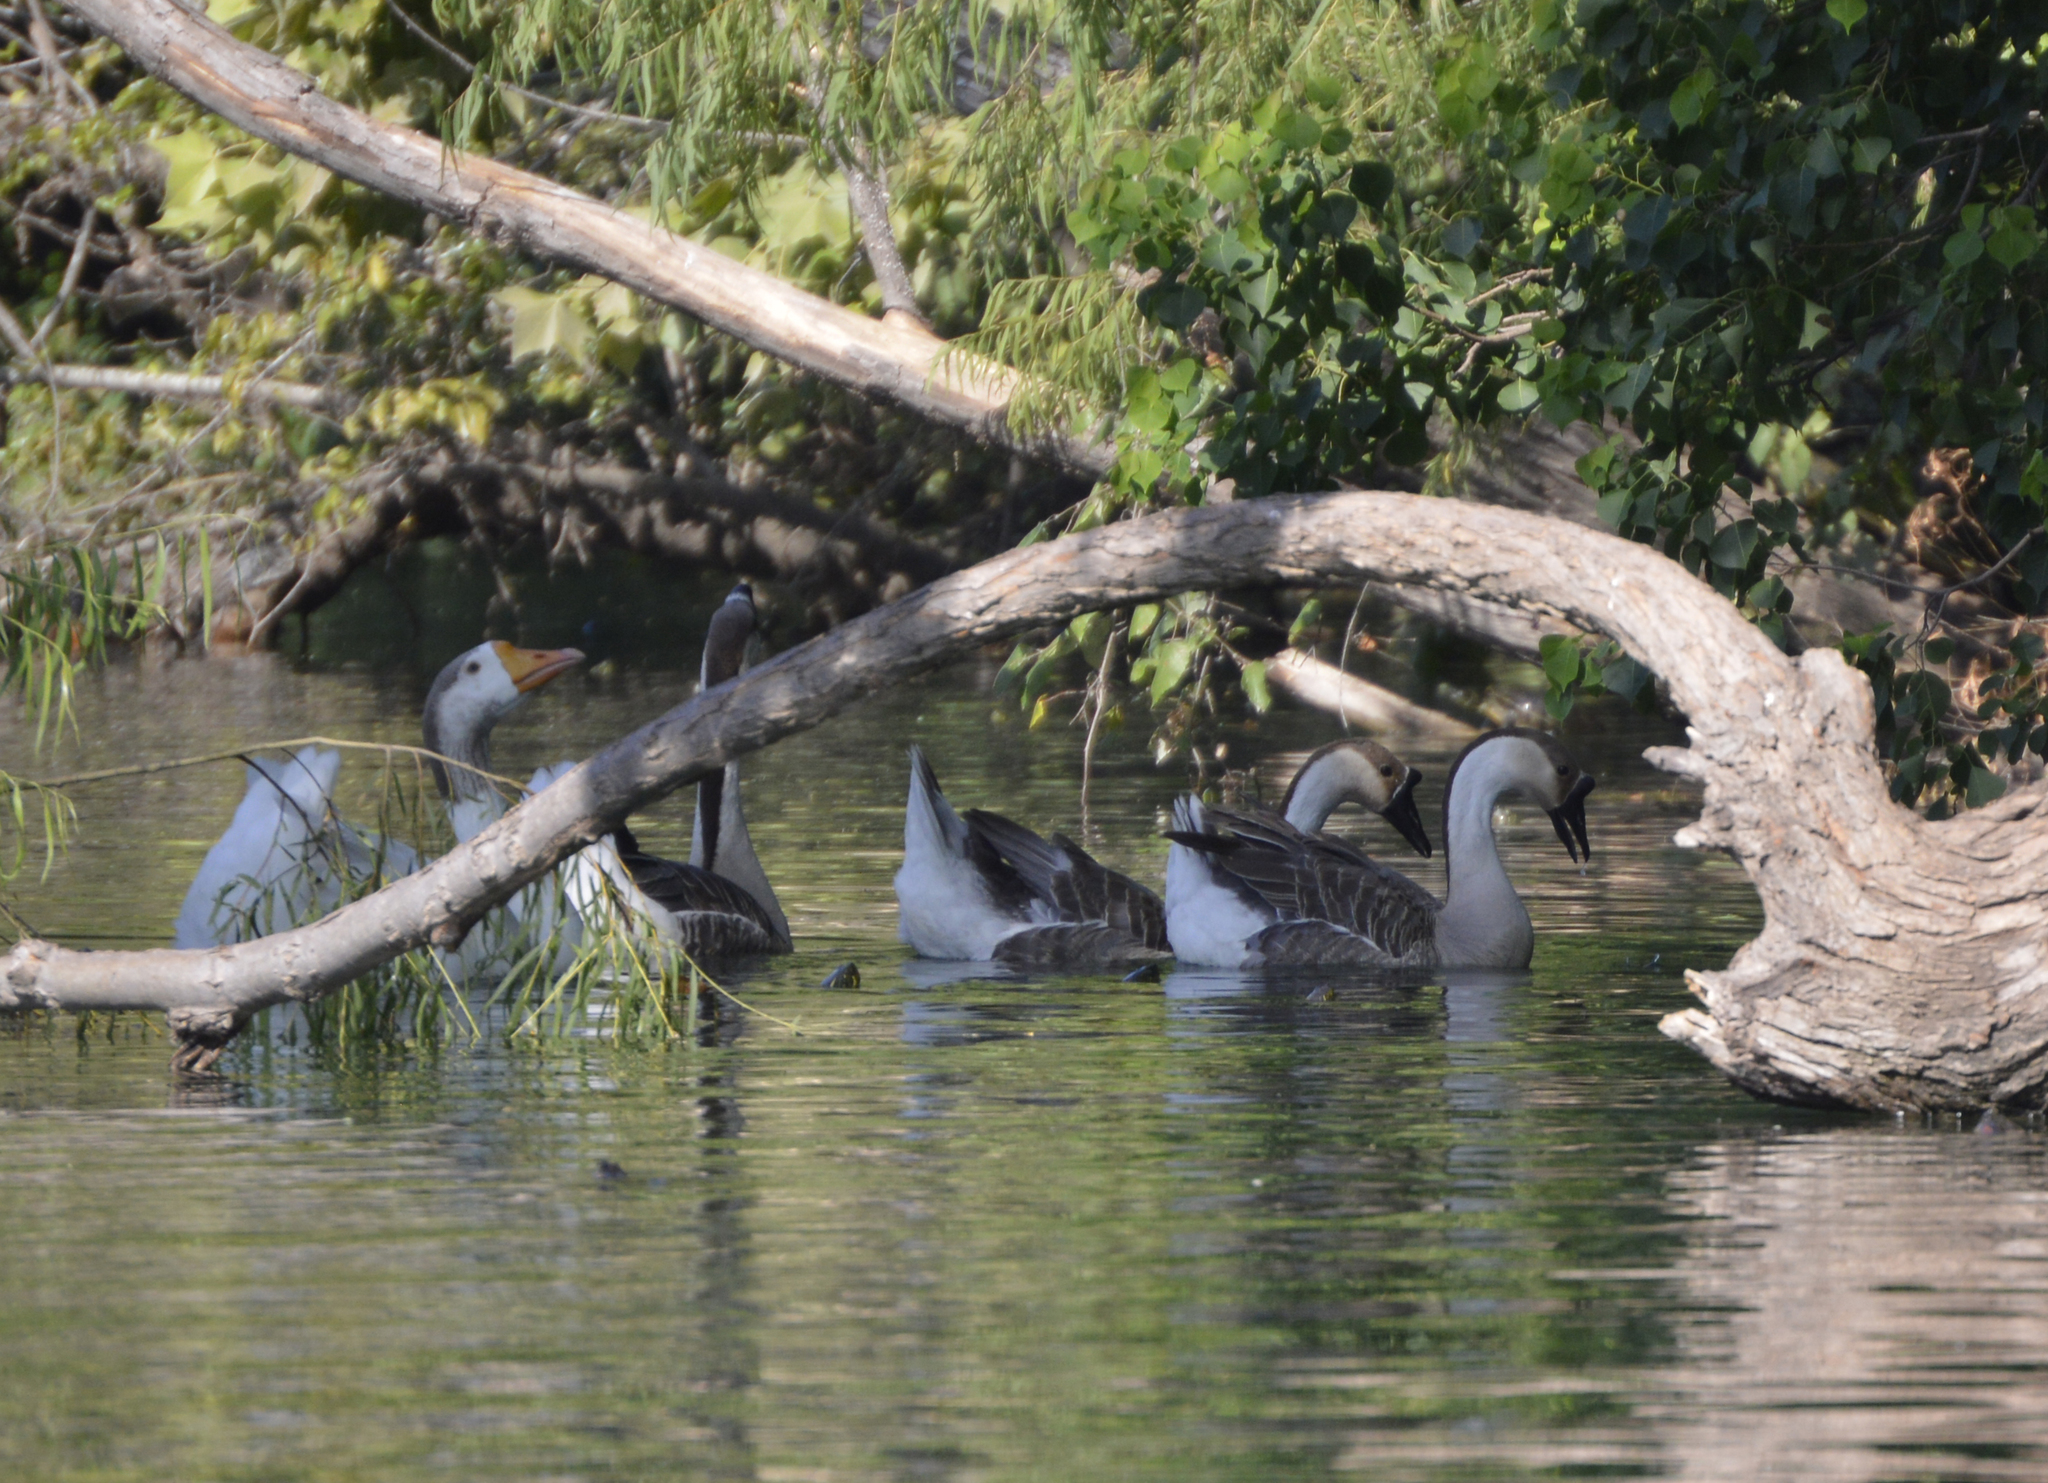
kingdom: Animalia
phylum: Chordata
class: Aves
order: Anseriformes
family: Anatidae
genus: Anser
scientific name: Anser cygnoides
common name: Swan goose
